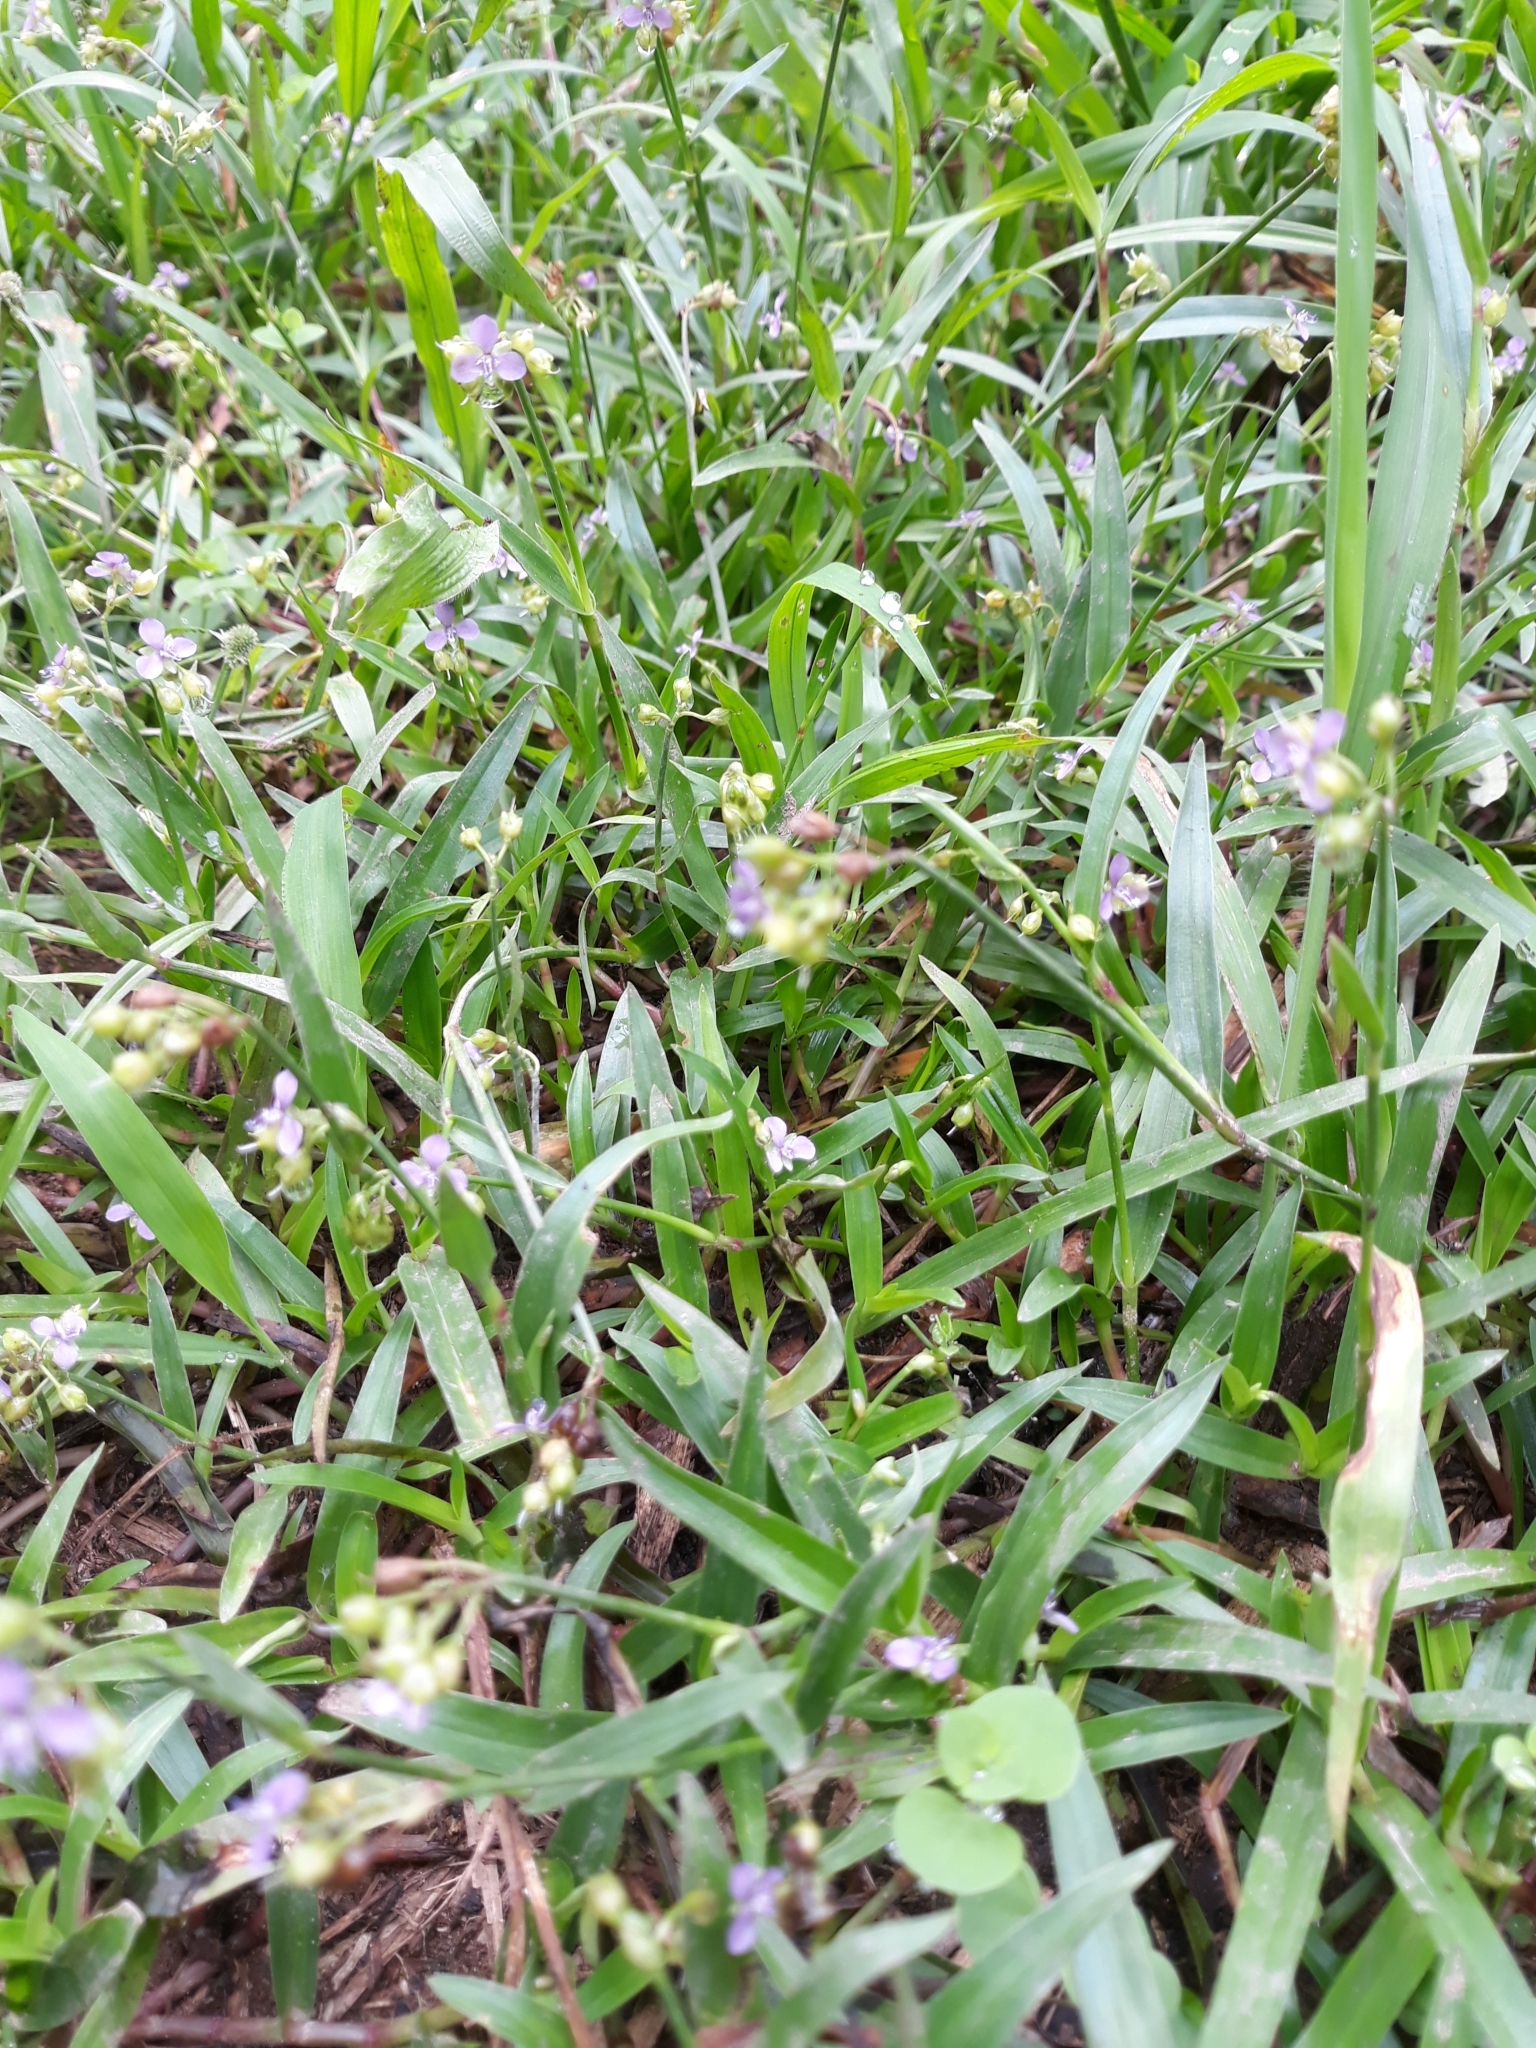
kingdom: Plantae
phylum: Tracheophyta
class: Liliopsida
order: Commelinales
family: Commelinaceae
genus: Murdannia
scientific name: Murdannia nudiflora
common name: Nakedstem dewflower
